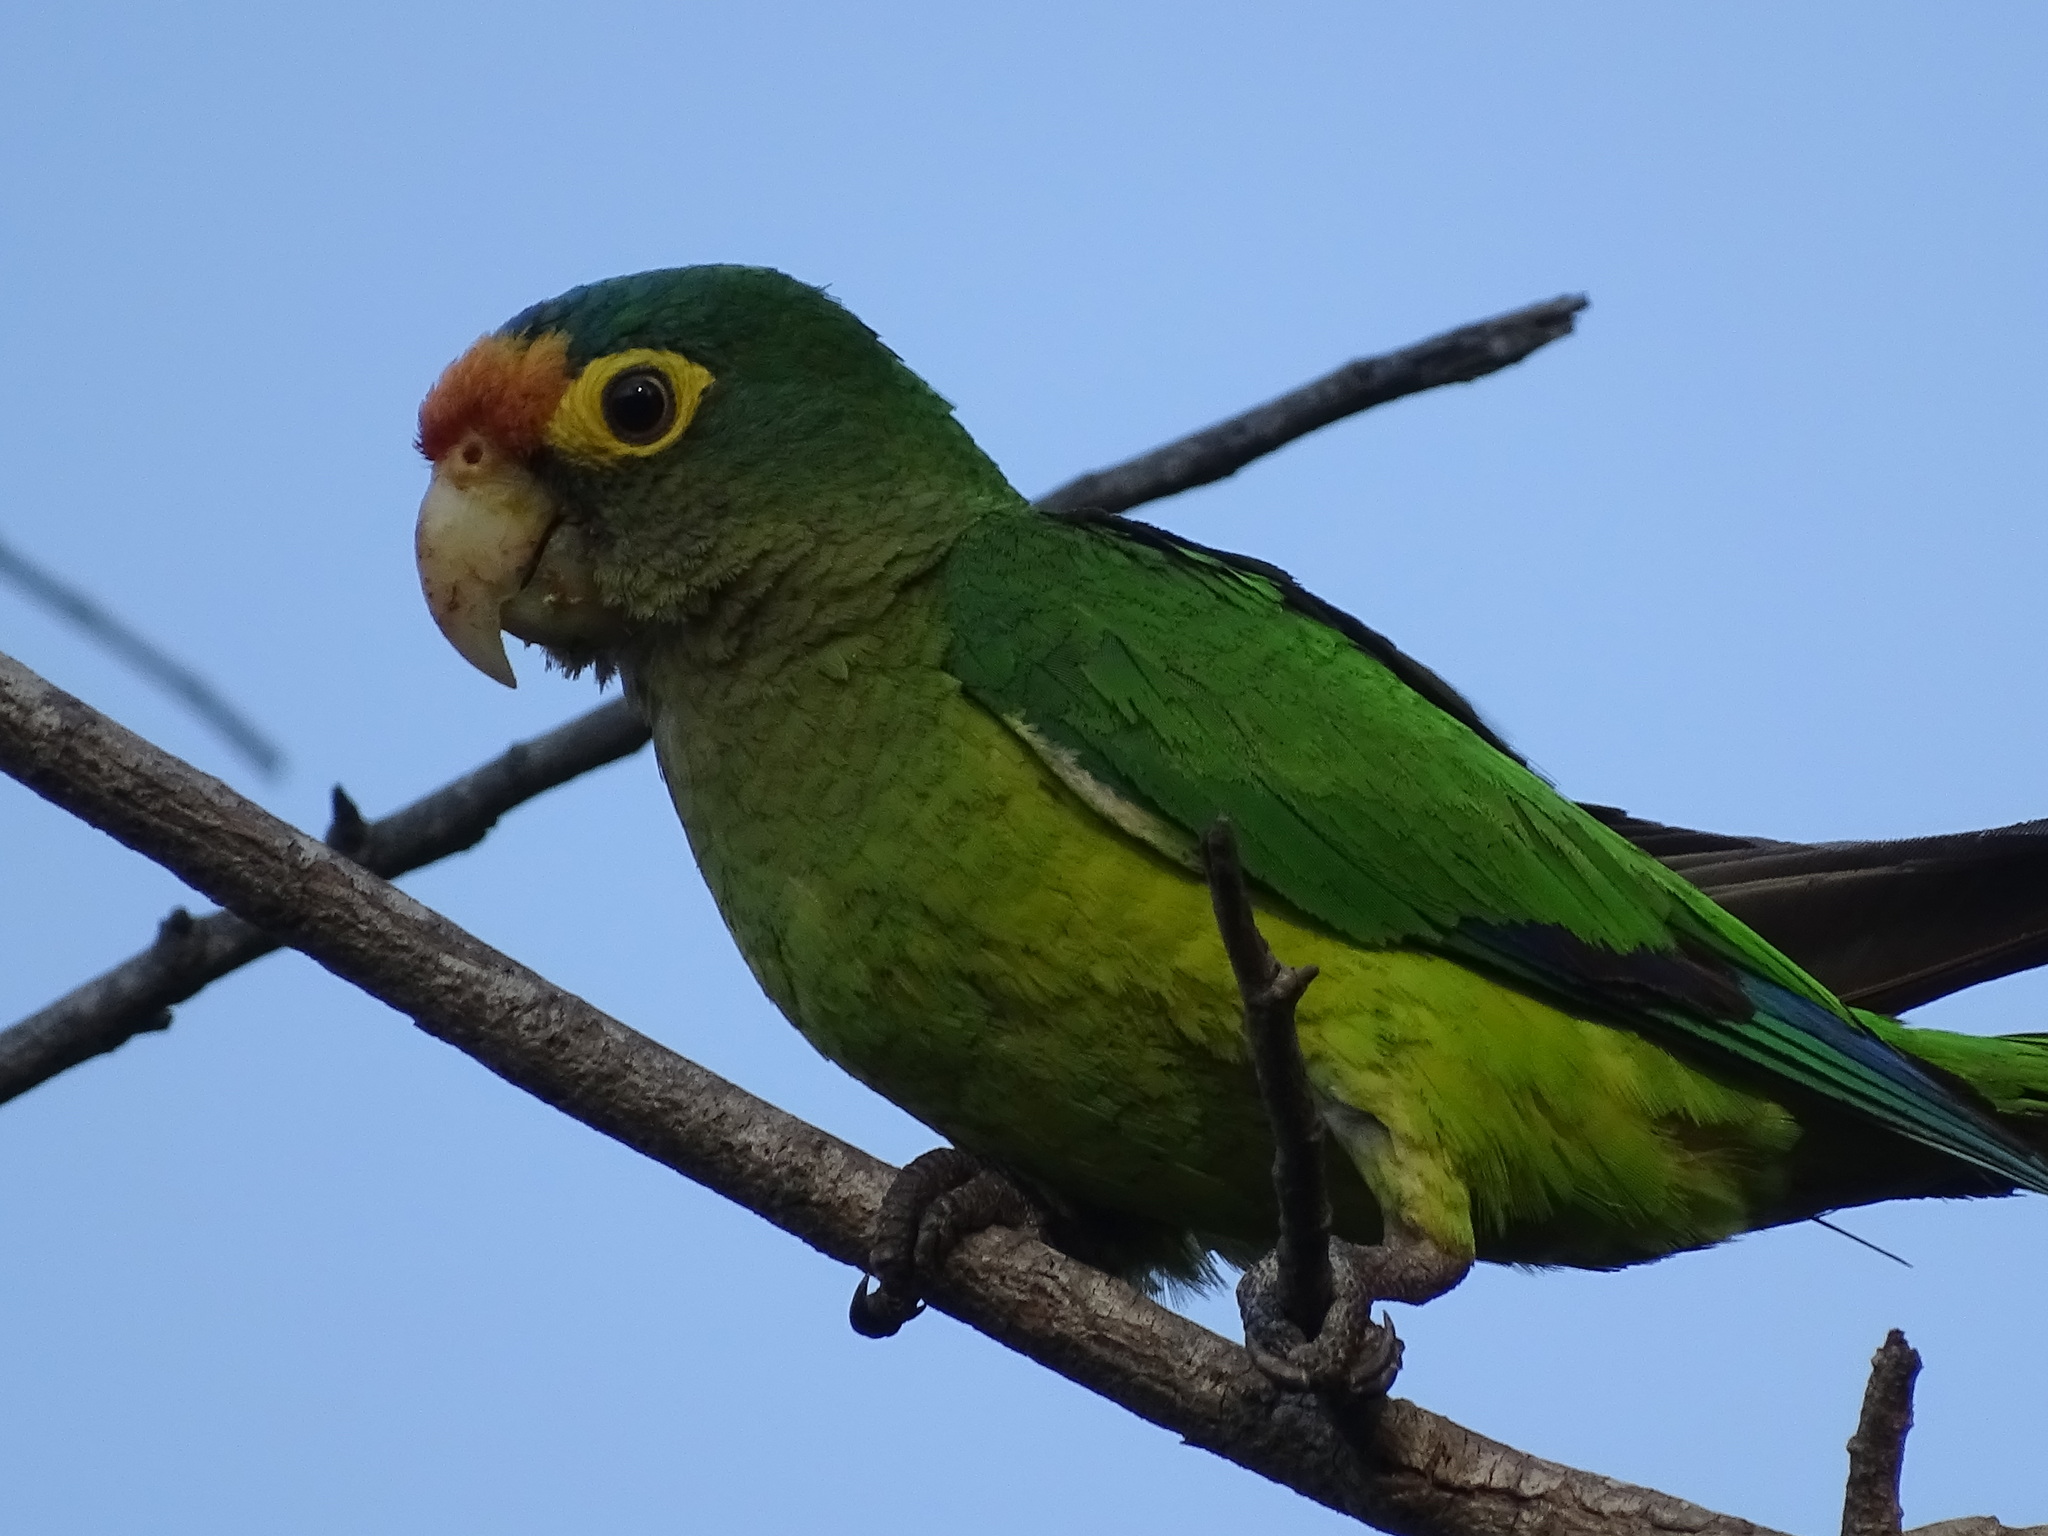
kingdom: Animalia
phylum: Chordata
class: Aves
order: Psittaciformes
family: Psittacidae
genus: Aratinga
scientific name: Aratinga canicularis
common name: Orange-fronted parakeet
